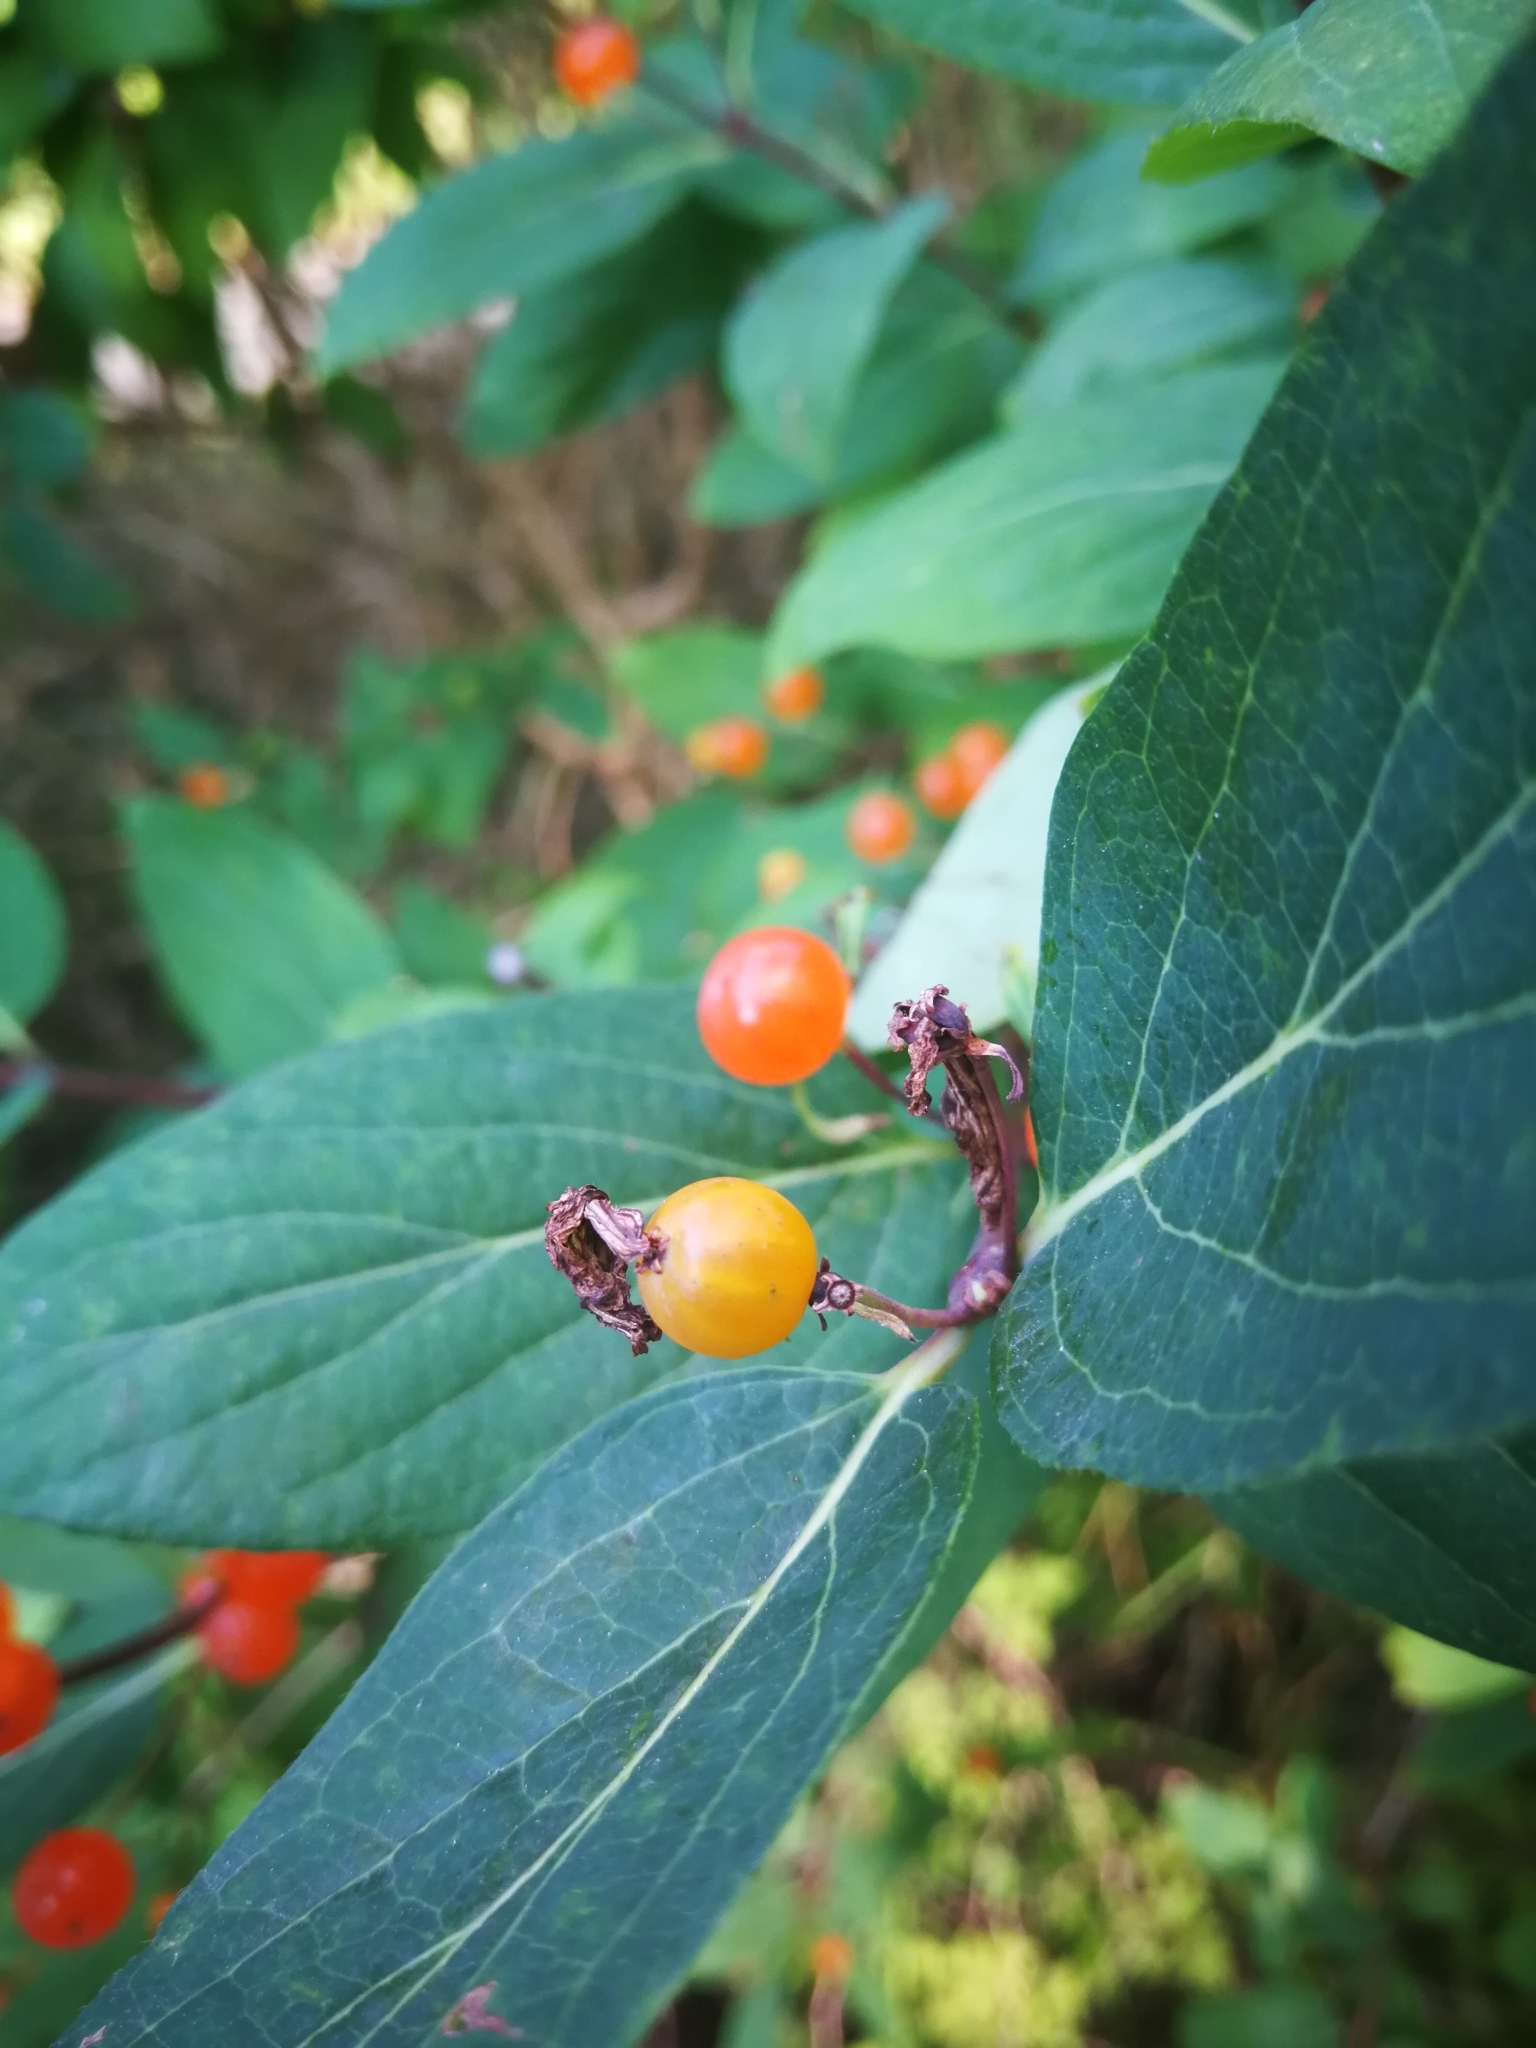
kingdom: Plantae
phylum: Tracheophyta
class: Magnoliopsida
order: Dipsacales
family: Caprifoliaceae
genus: Lonicera
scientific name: Lonicera tatarica
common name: Tatarian honeysuckle
